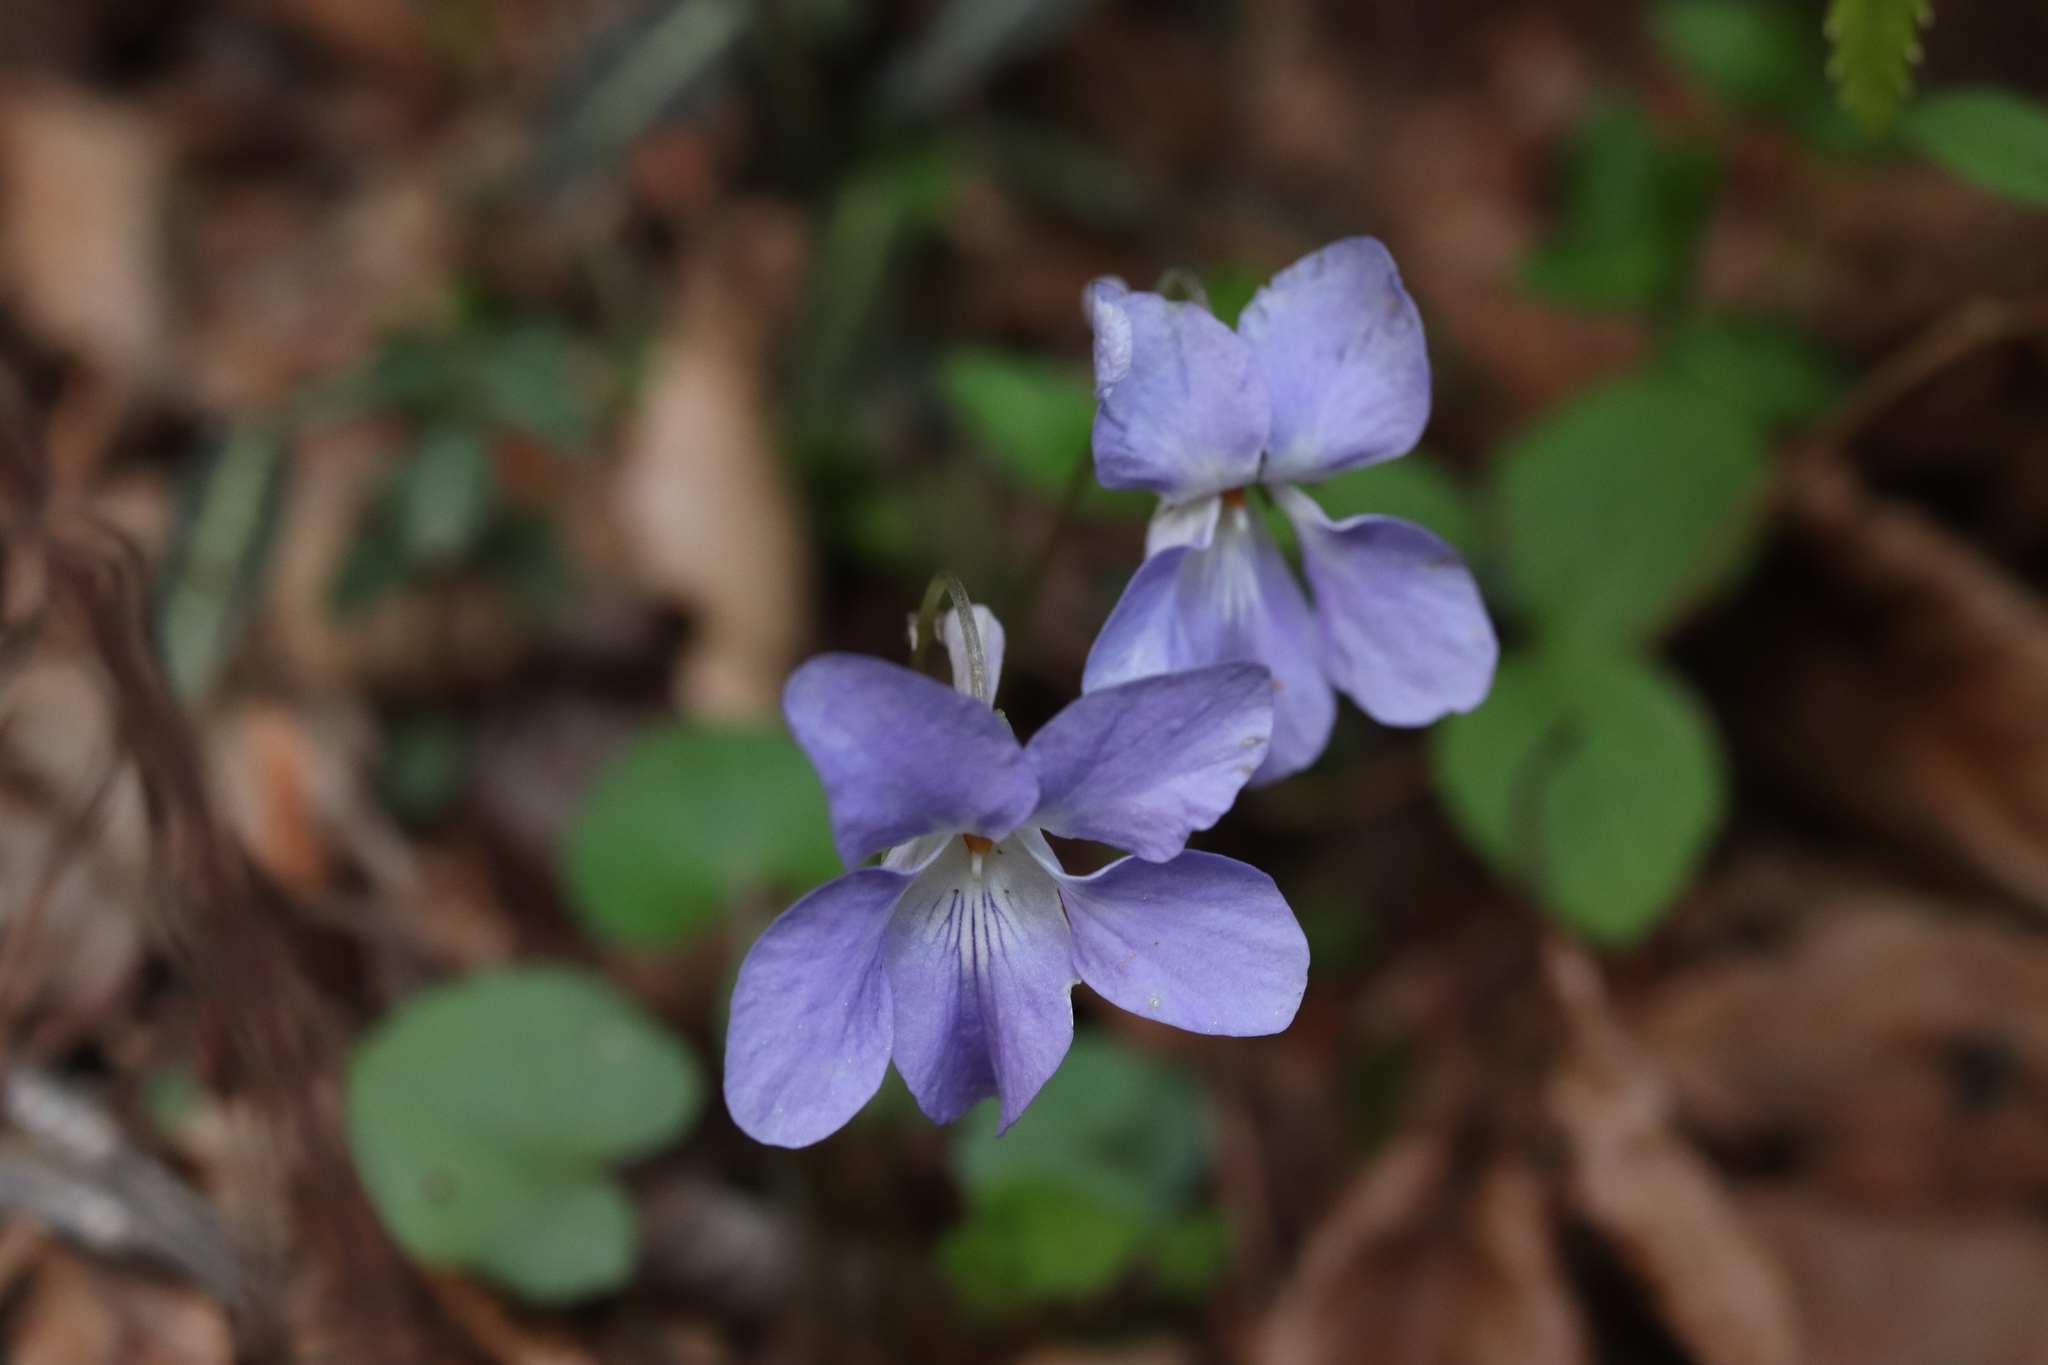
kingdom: Plantae
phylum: Tracheophyta
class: Magnoliopsida
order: Malpighiales
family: Violaceae
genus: Viola
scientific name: Viola grypoceras
